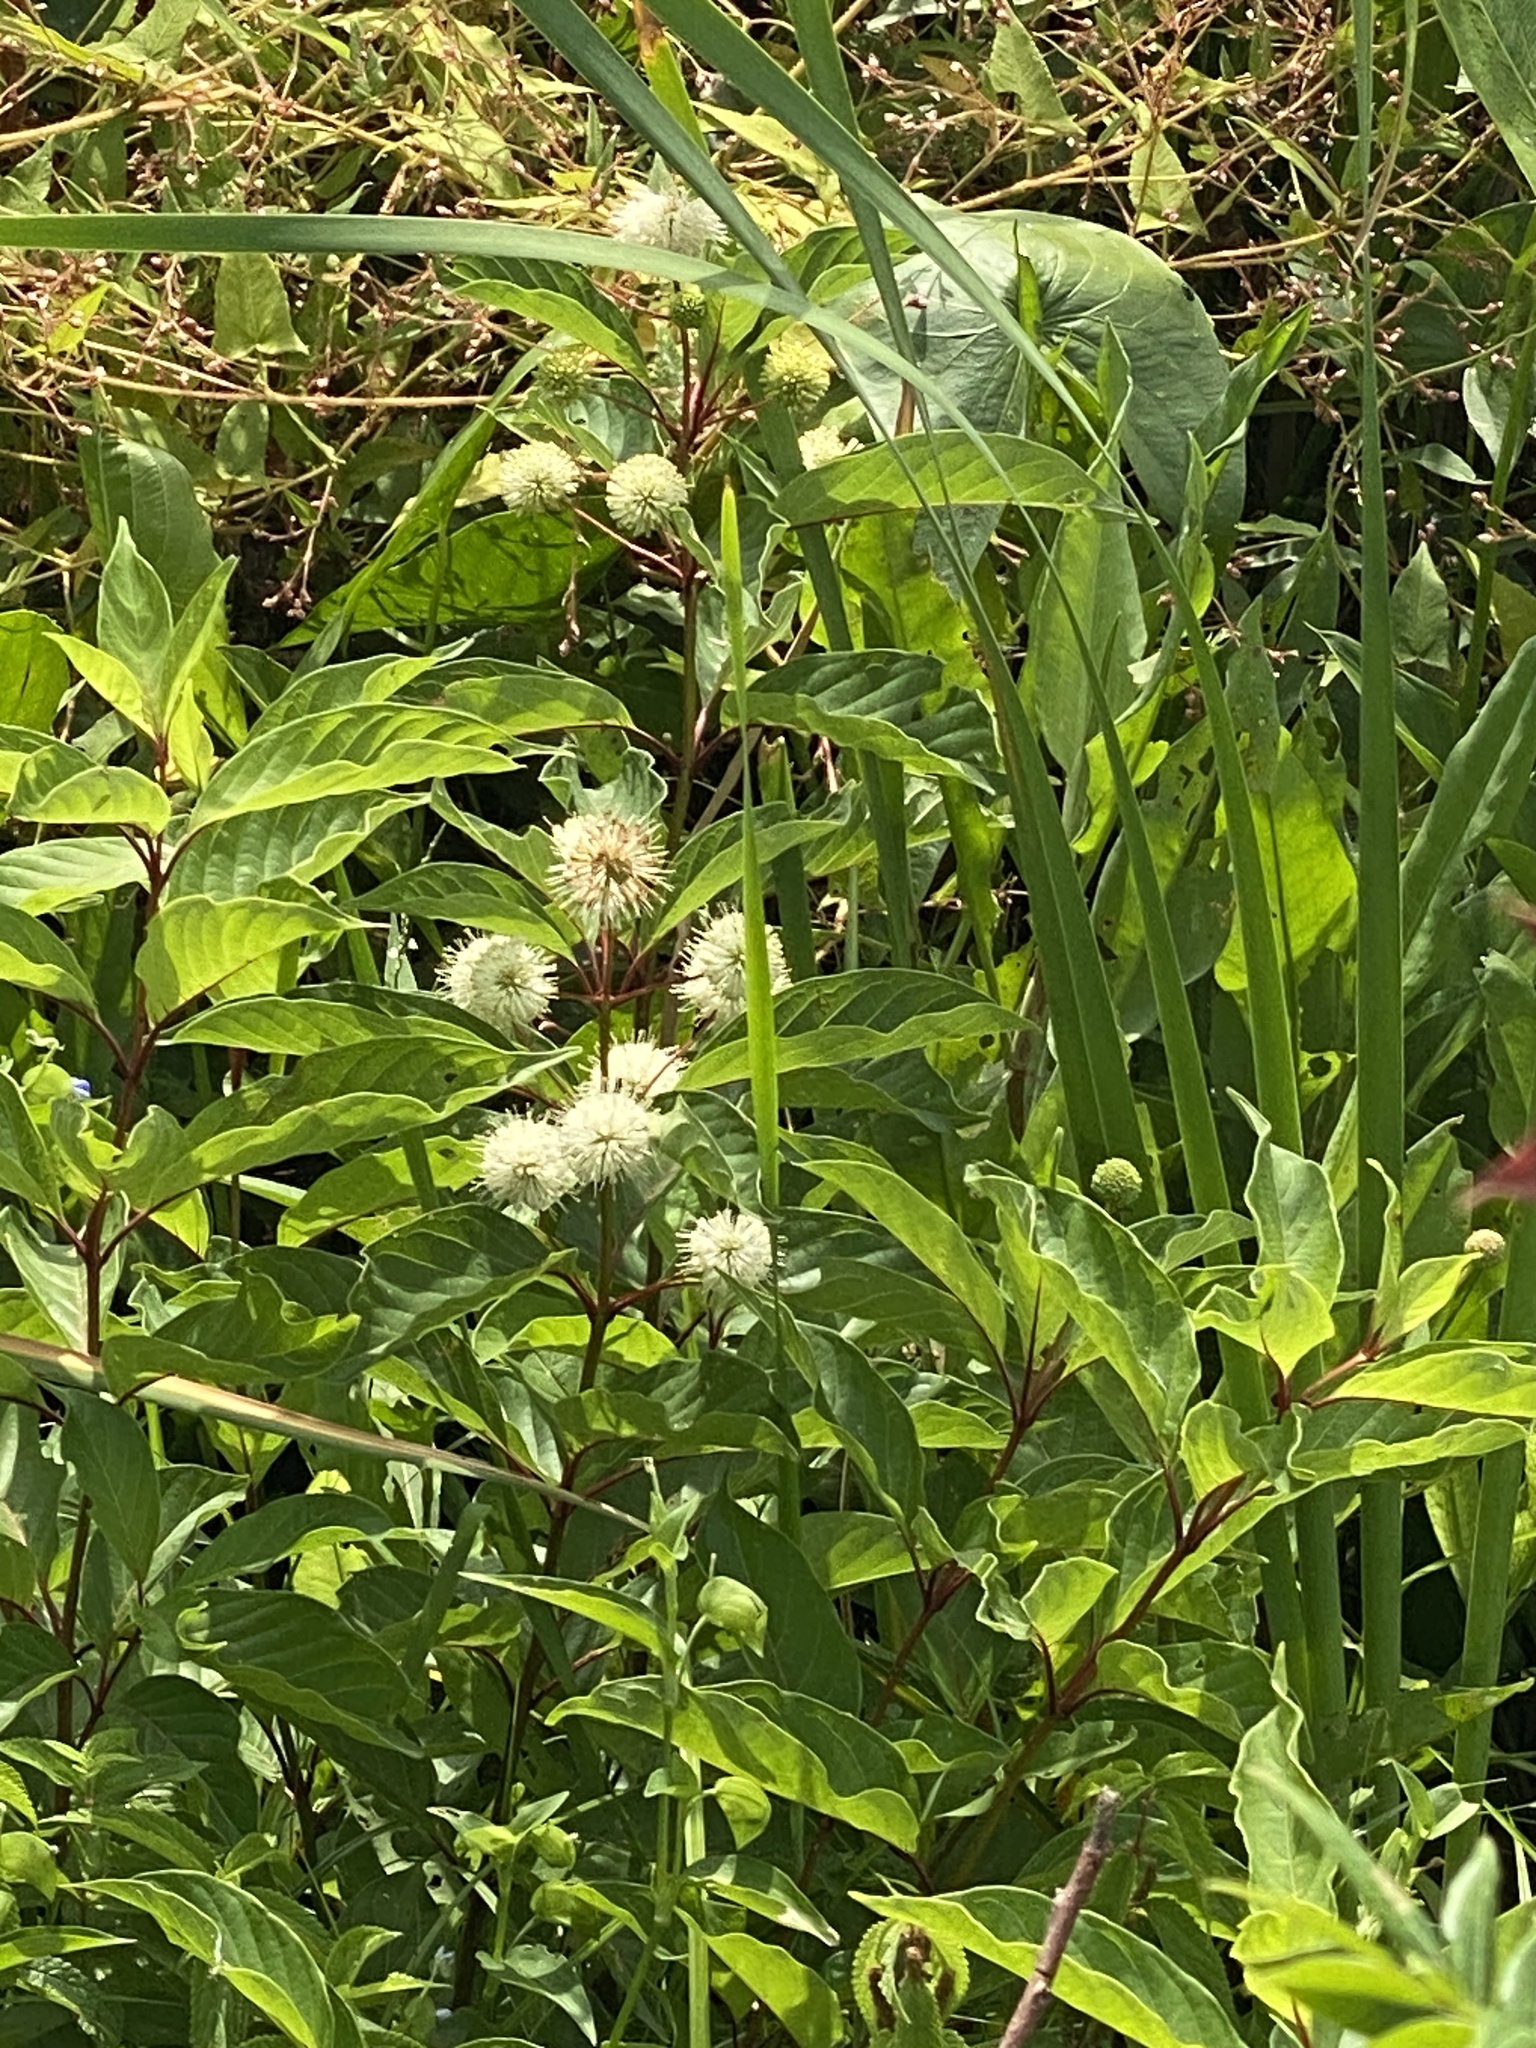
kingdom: Plantae
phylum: Tracheophyta
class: Magnoliopsida
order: Gentianales
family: Rubiaceae
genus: Cephalanthus
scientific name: Cephalanthus occidentalis
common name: Button-willow
